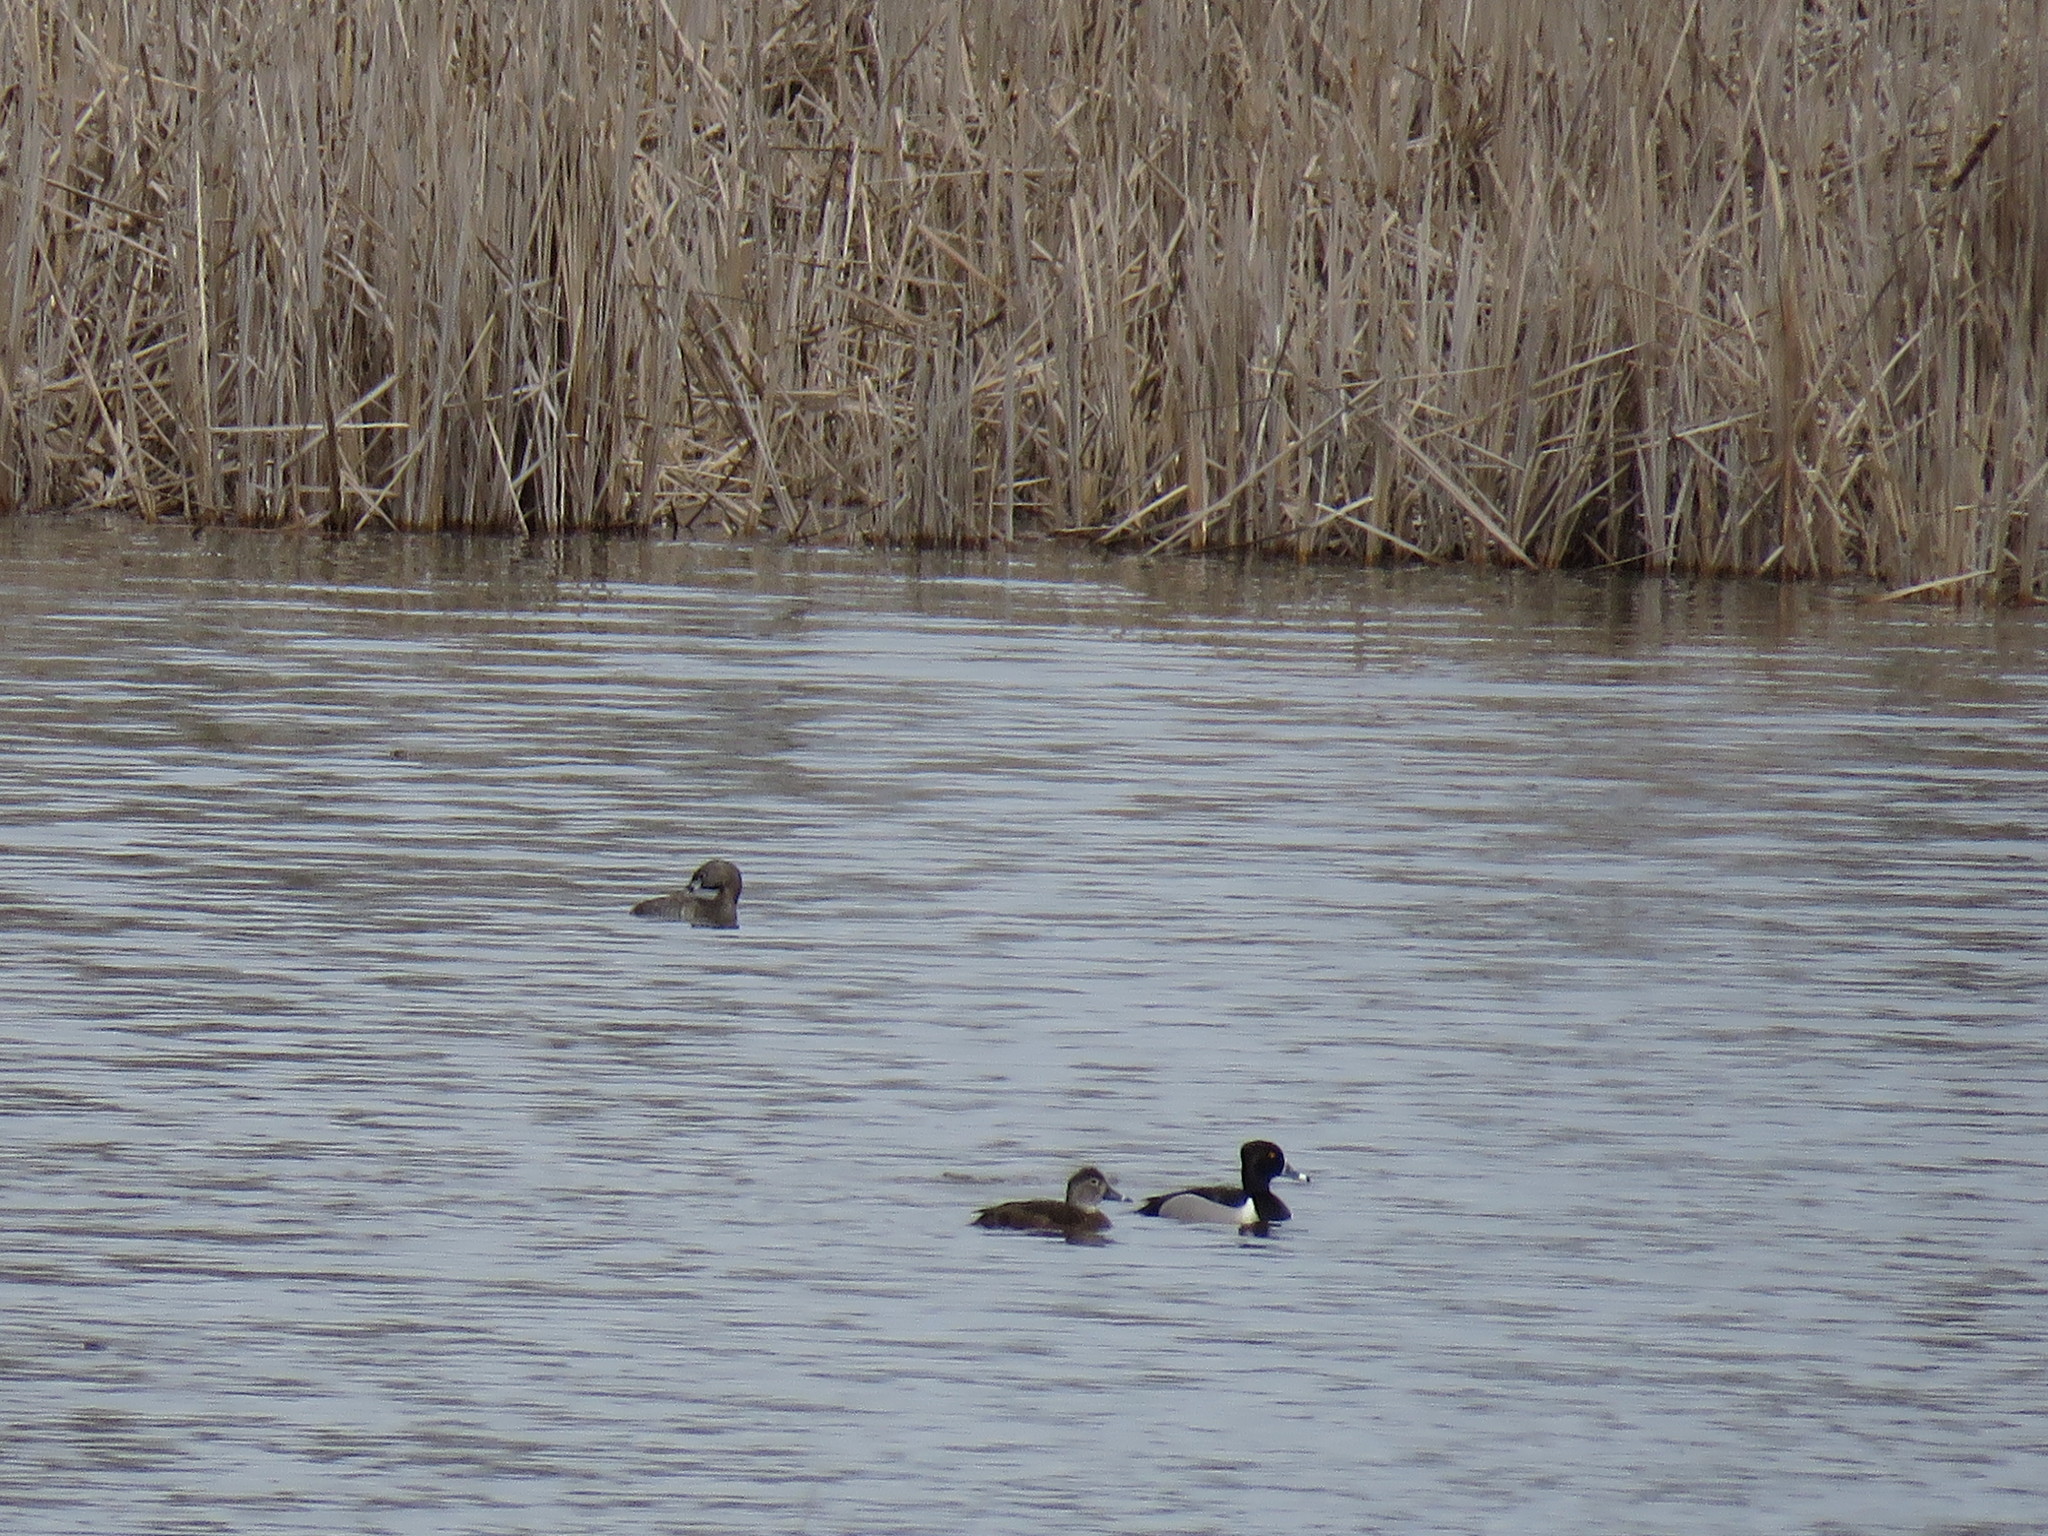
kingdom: Animalia
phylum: Chordata
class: Aves
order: Anseriformes
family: Anatidae
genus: Aythya
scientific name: Aythya collaris
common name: Ring-necked duck
